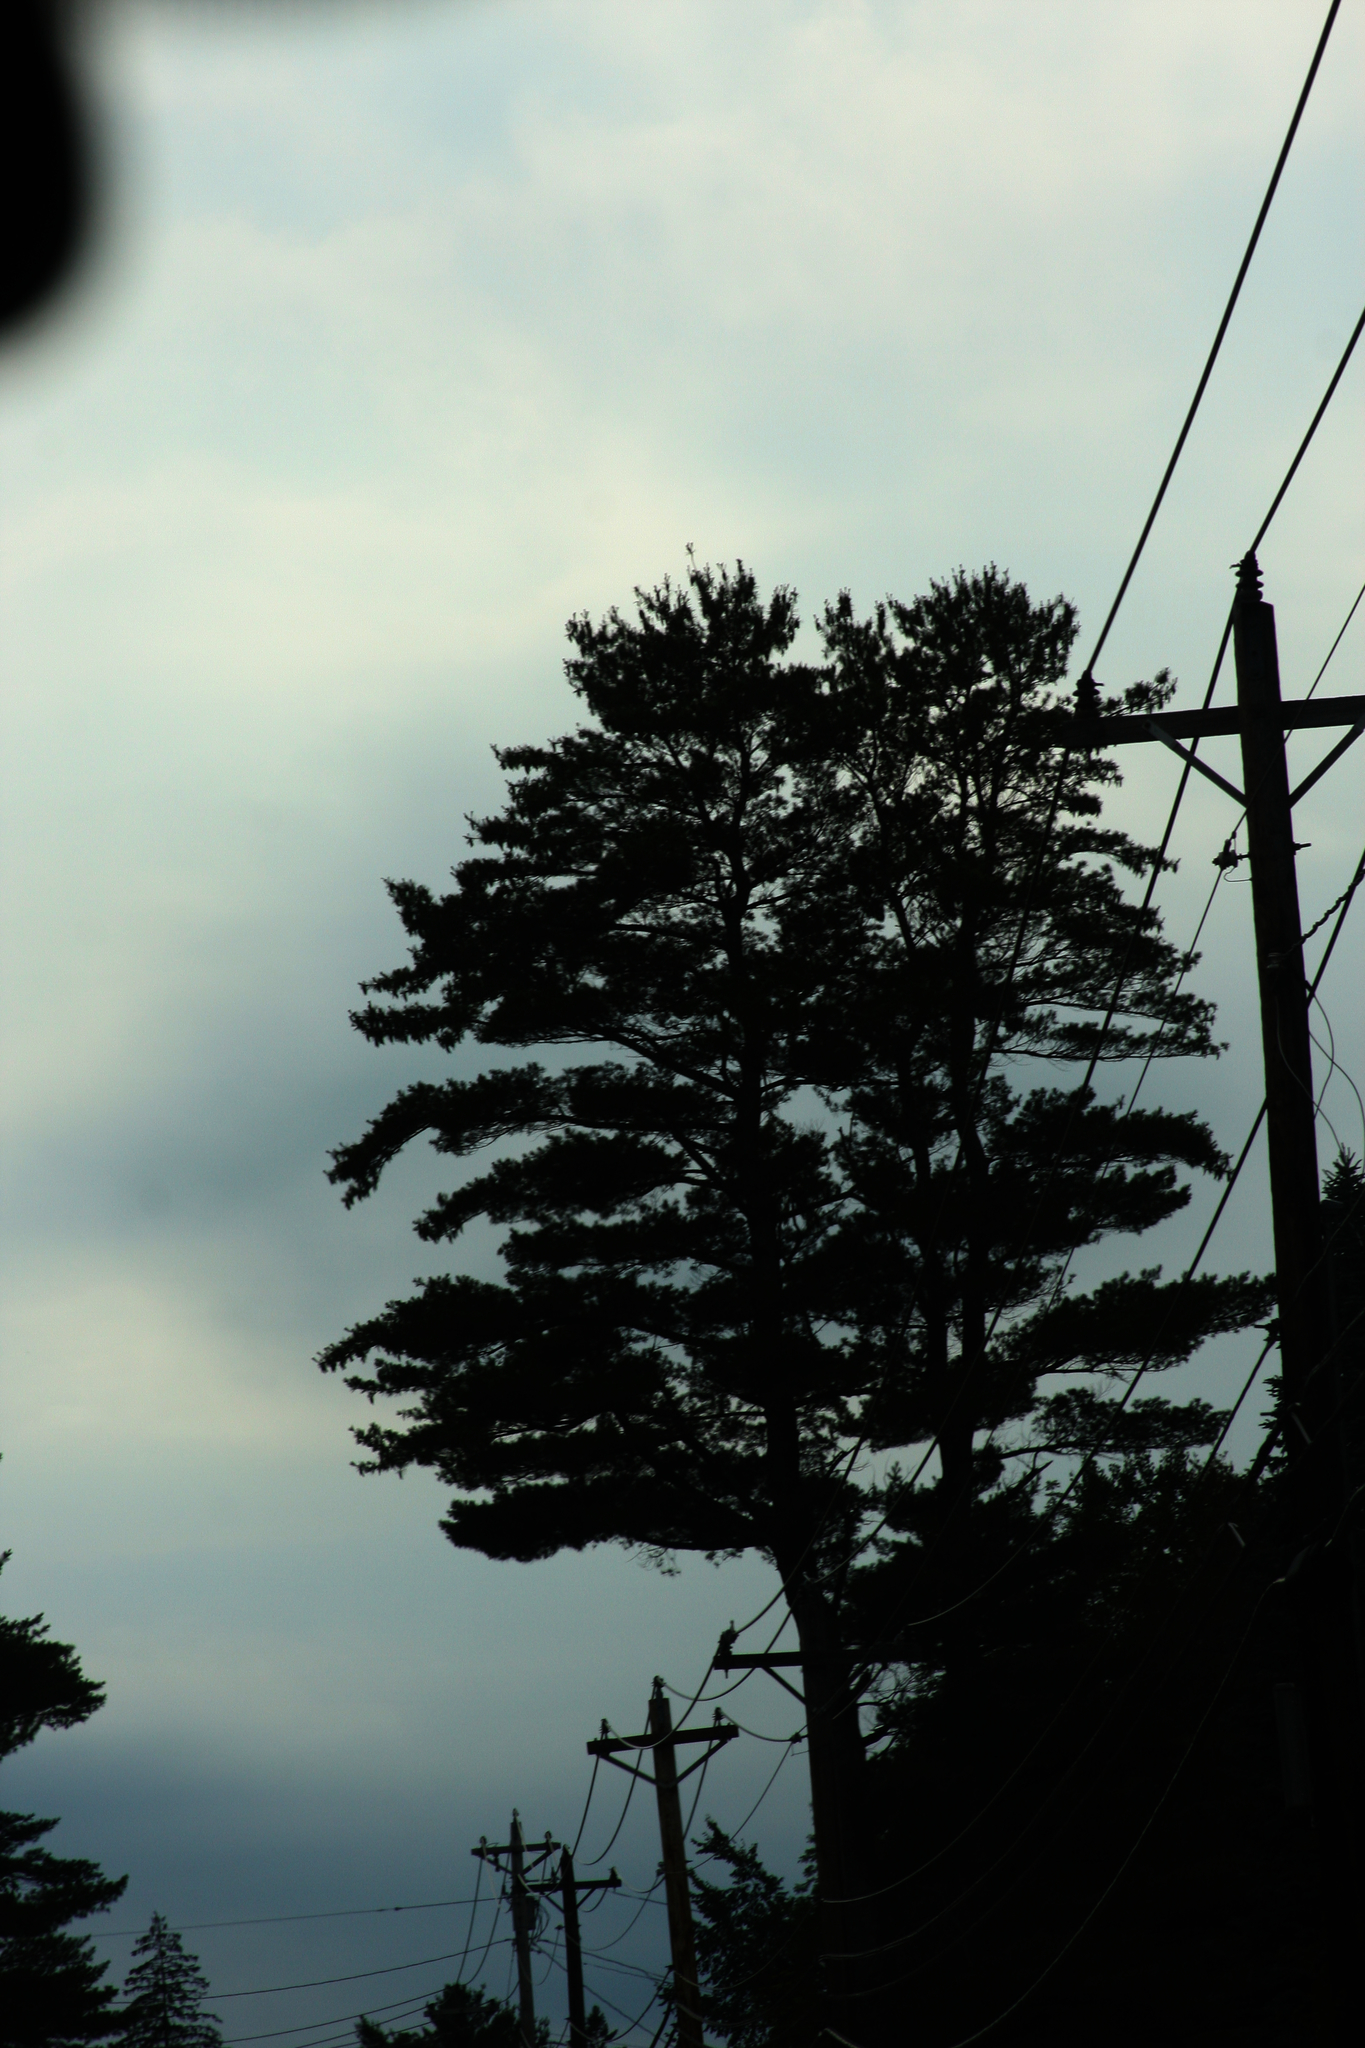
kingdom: Plantae
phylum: Tracheophyta
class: Pinopsida
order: Pinales
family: Pinaceae
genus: Pinus
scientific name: Pinus strobus
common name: Weymouth pine
